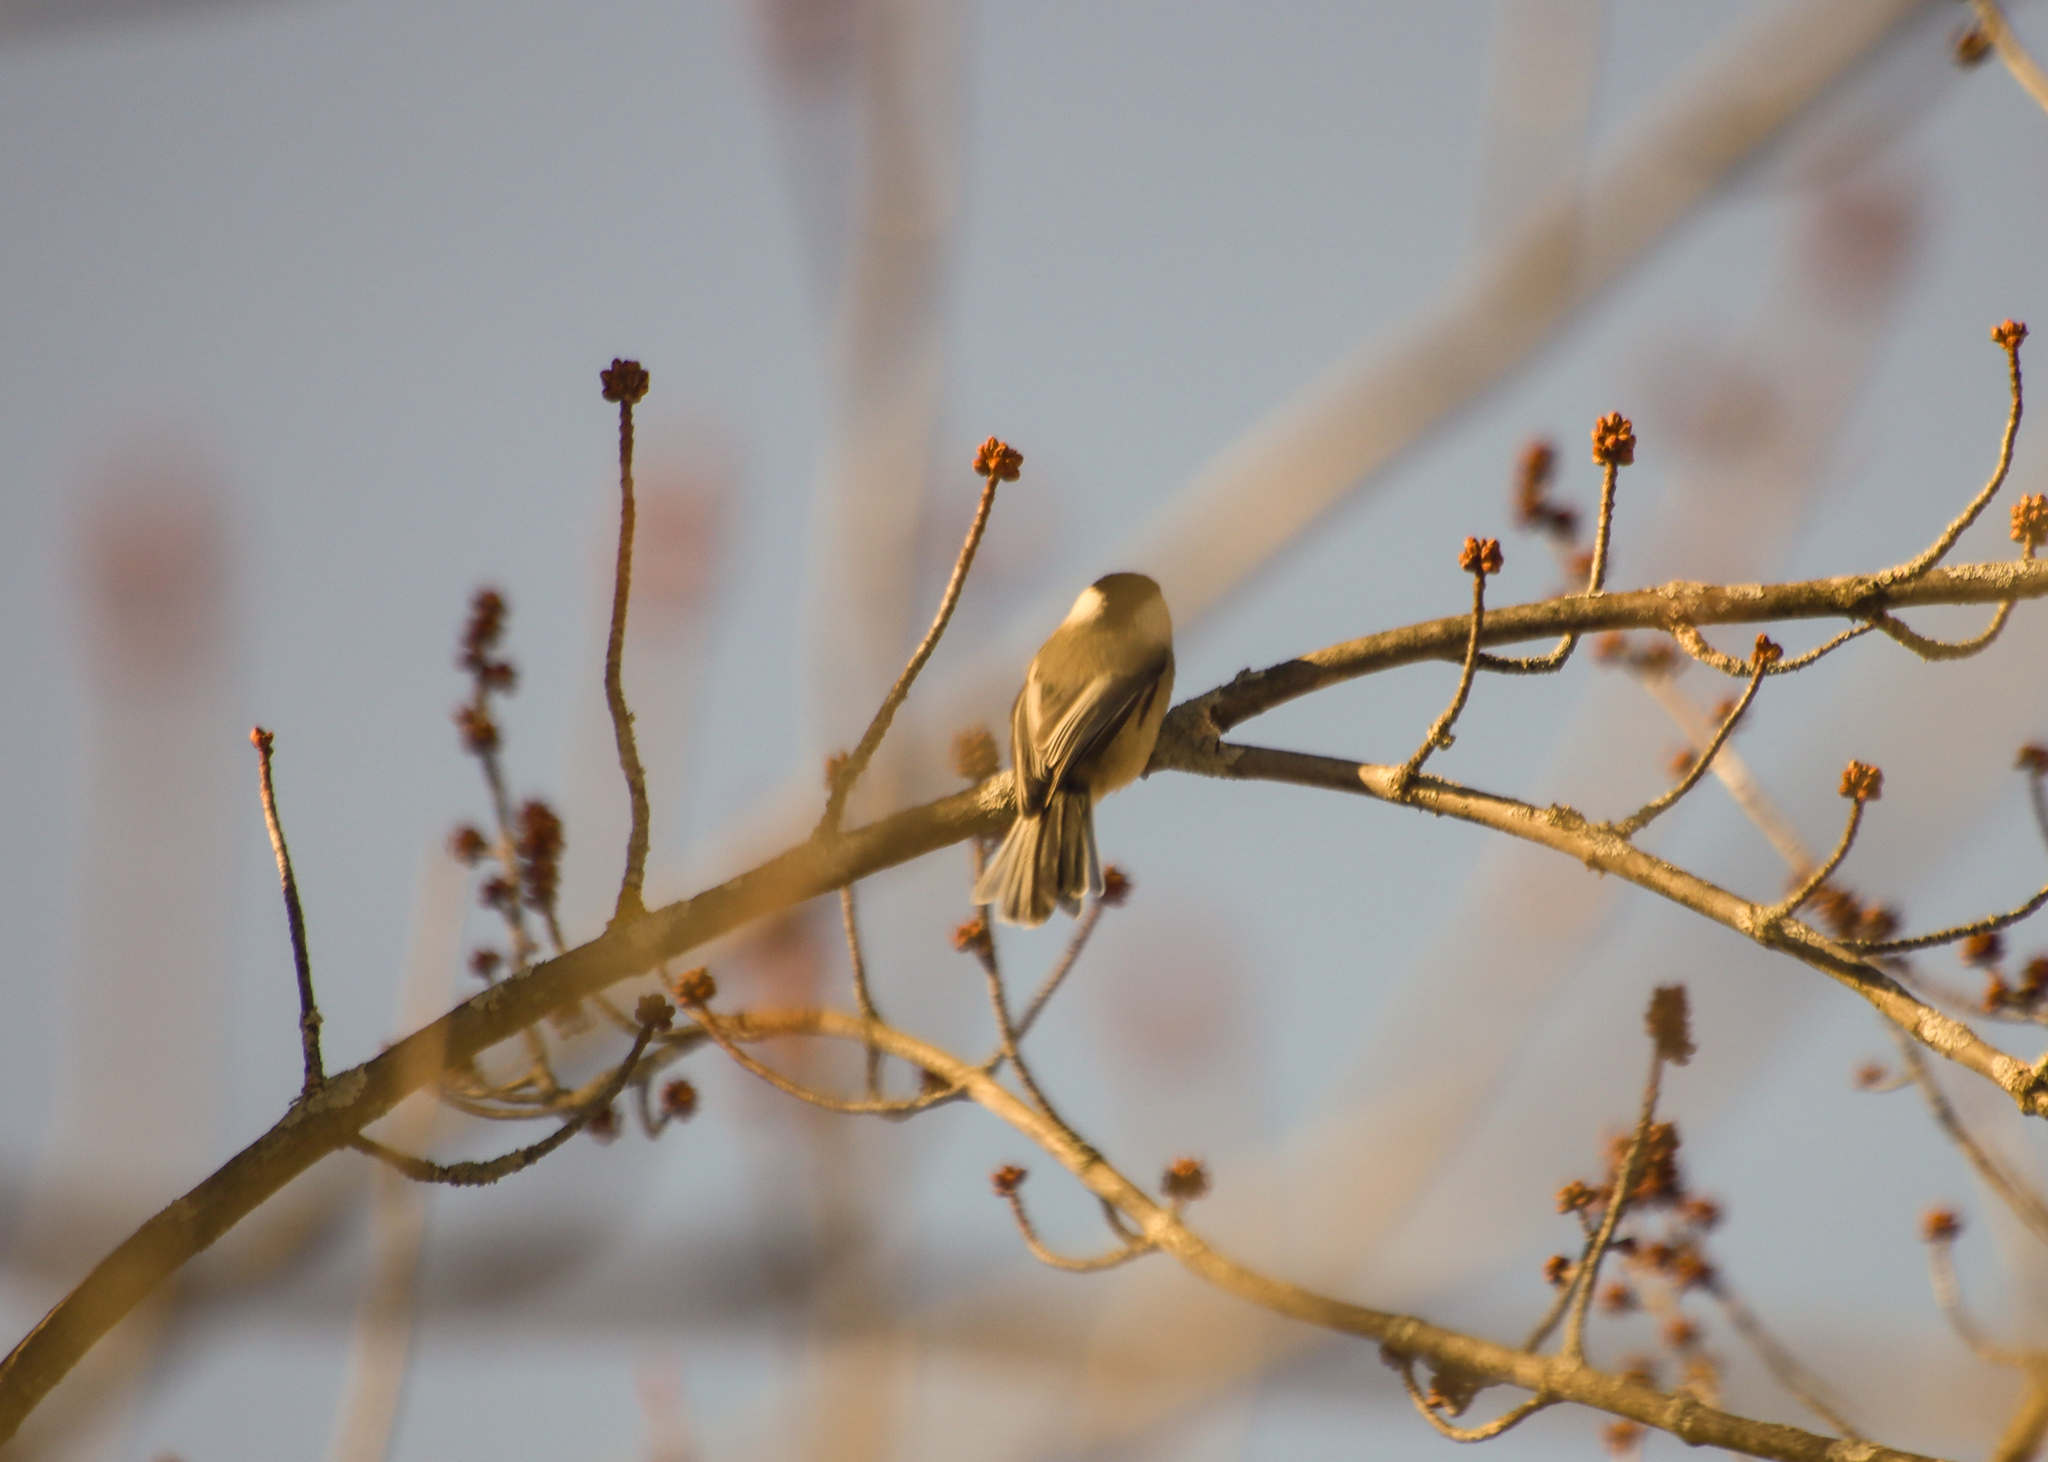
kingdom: Animalia
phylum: Chordata
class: Aves
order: Passeriformes
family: Paridae
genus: Poecile
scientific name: Poecile atricapillus
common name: Black-capped chickadee
